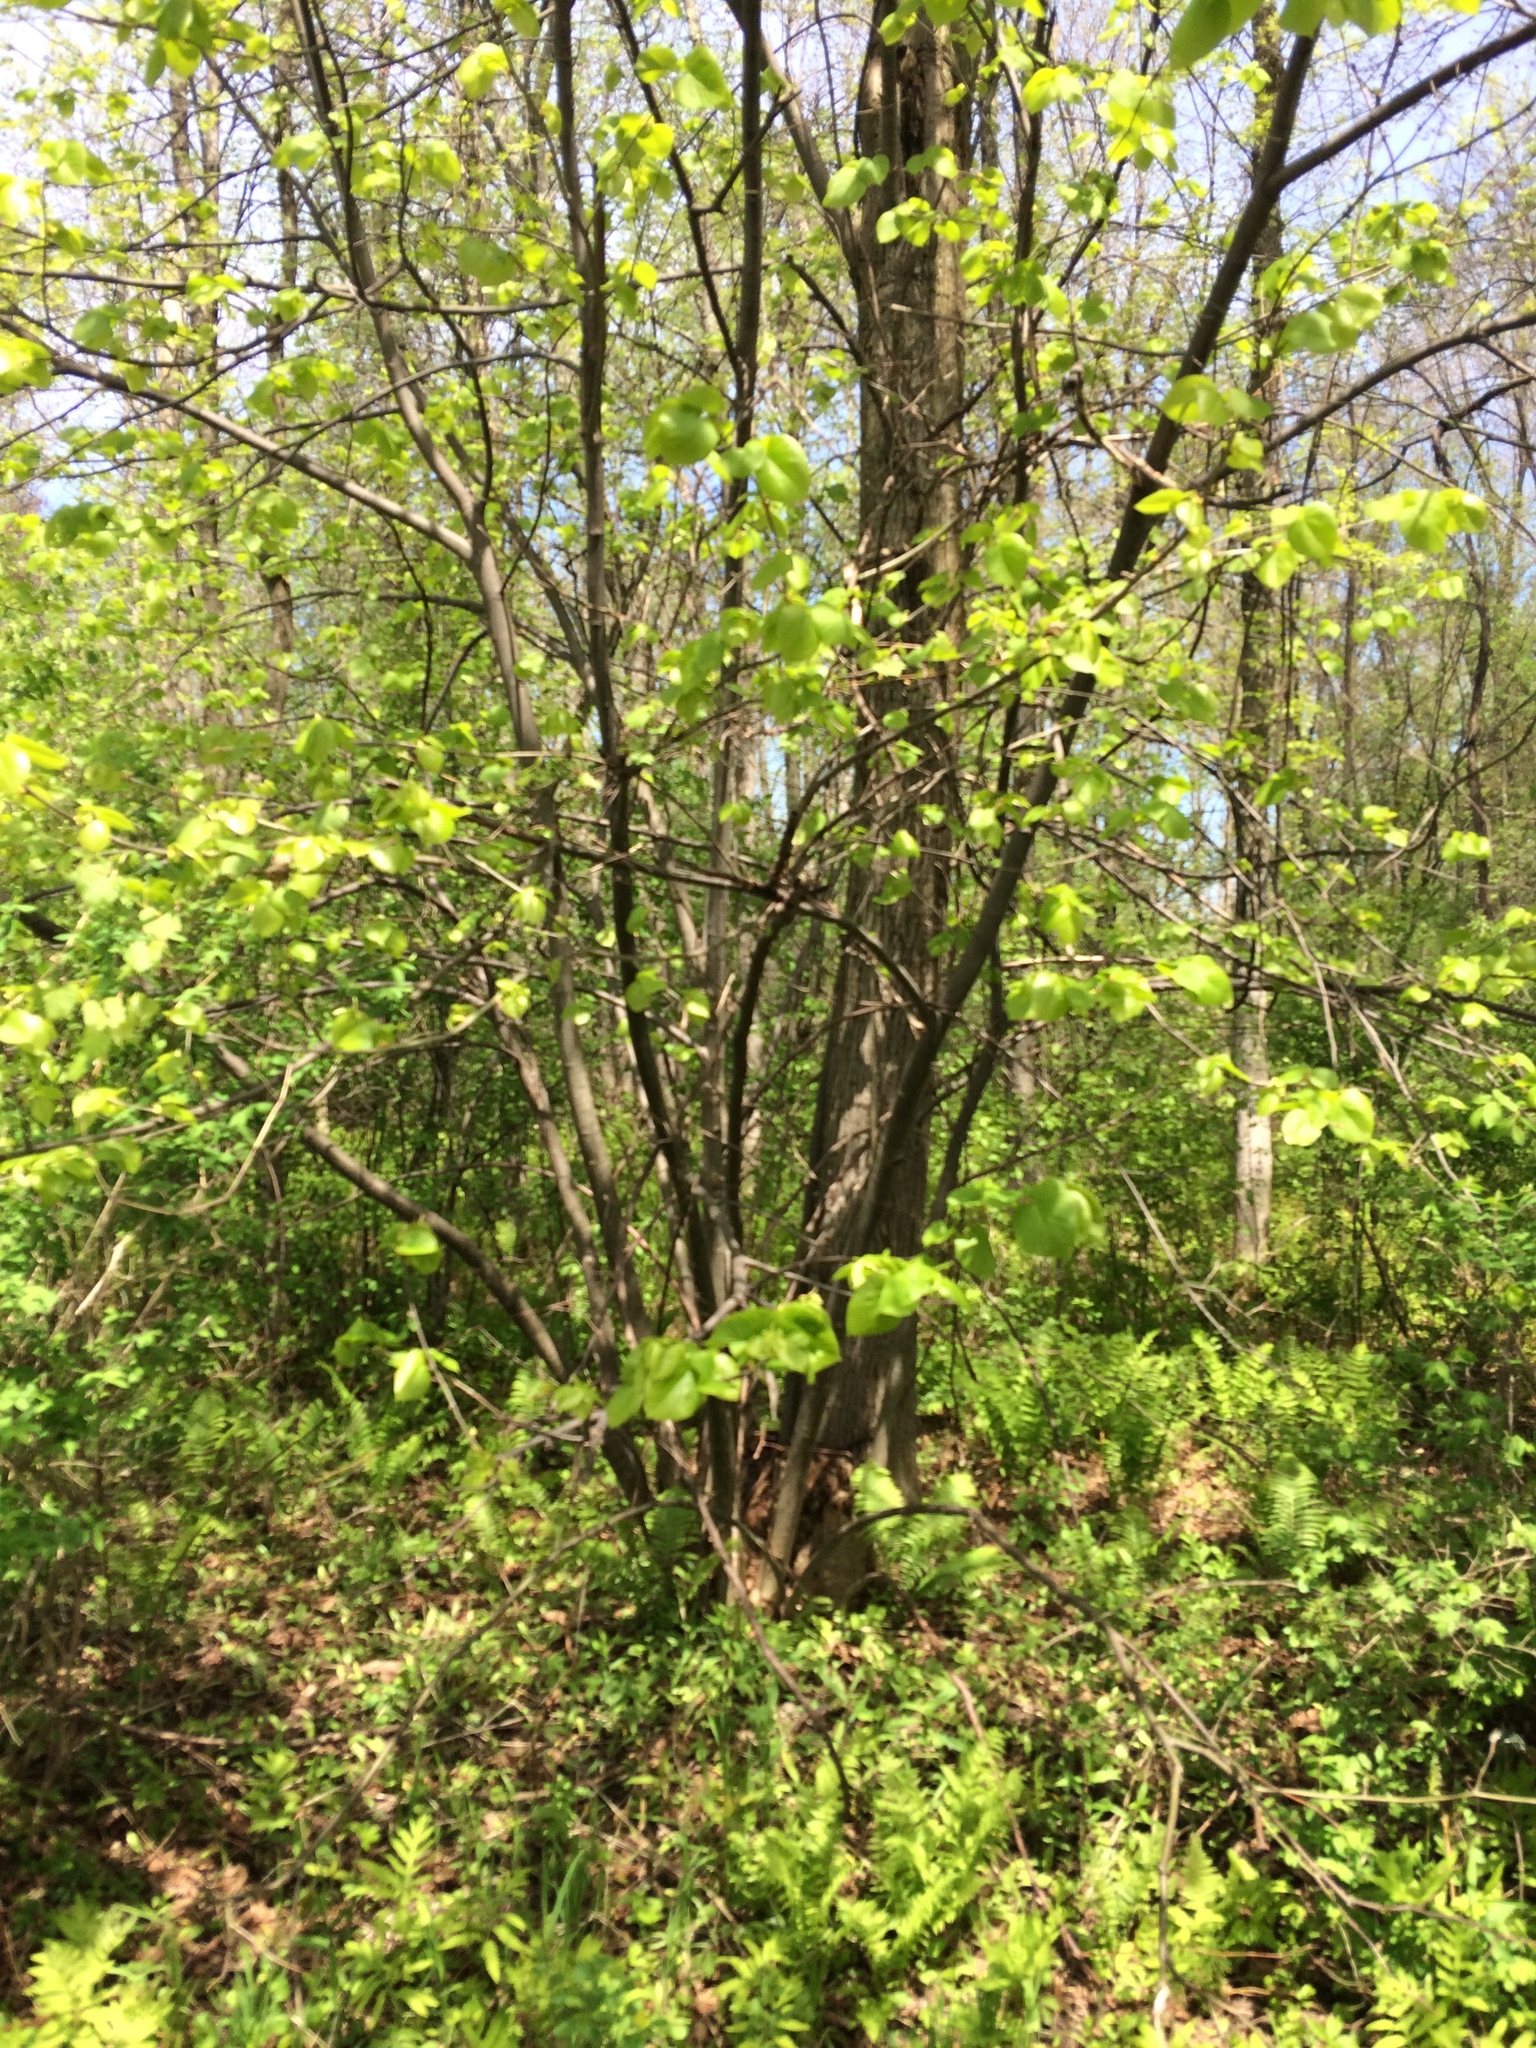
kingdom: Plantae
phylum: Tracheophyta
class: Magnoliopsida
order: Malvales
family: Malvaceae
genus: Tilia
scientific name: Tilia americana
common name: Basswood
